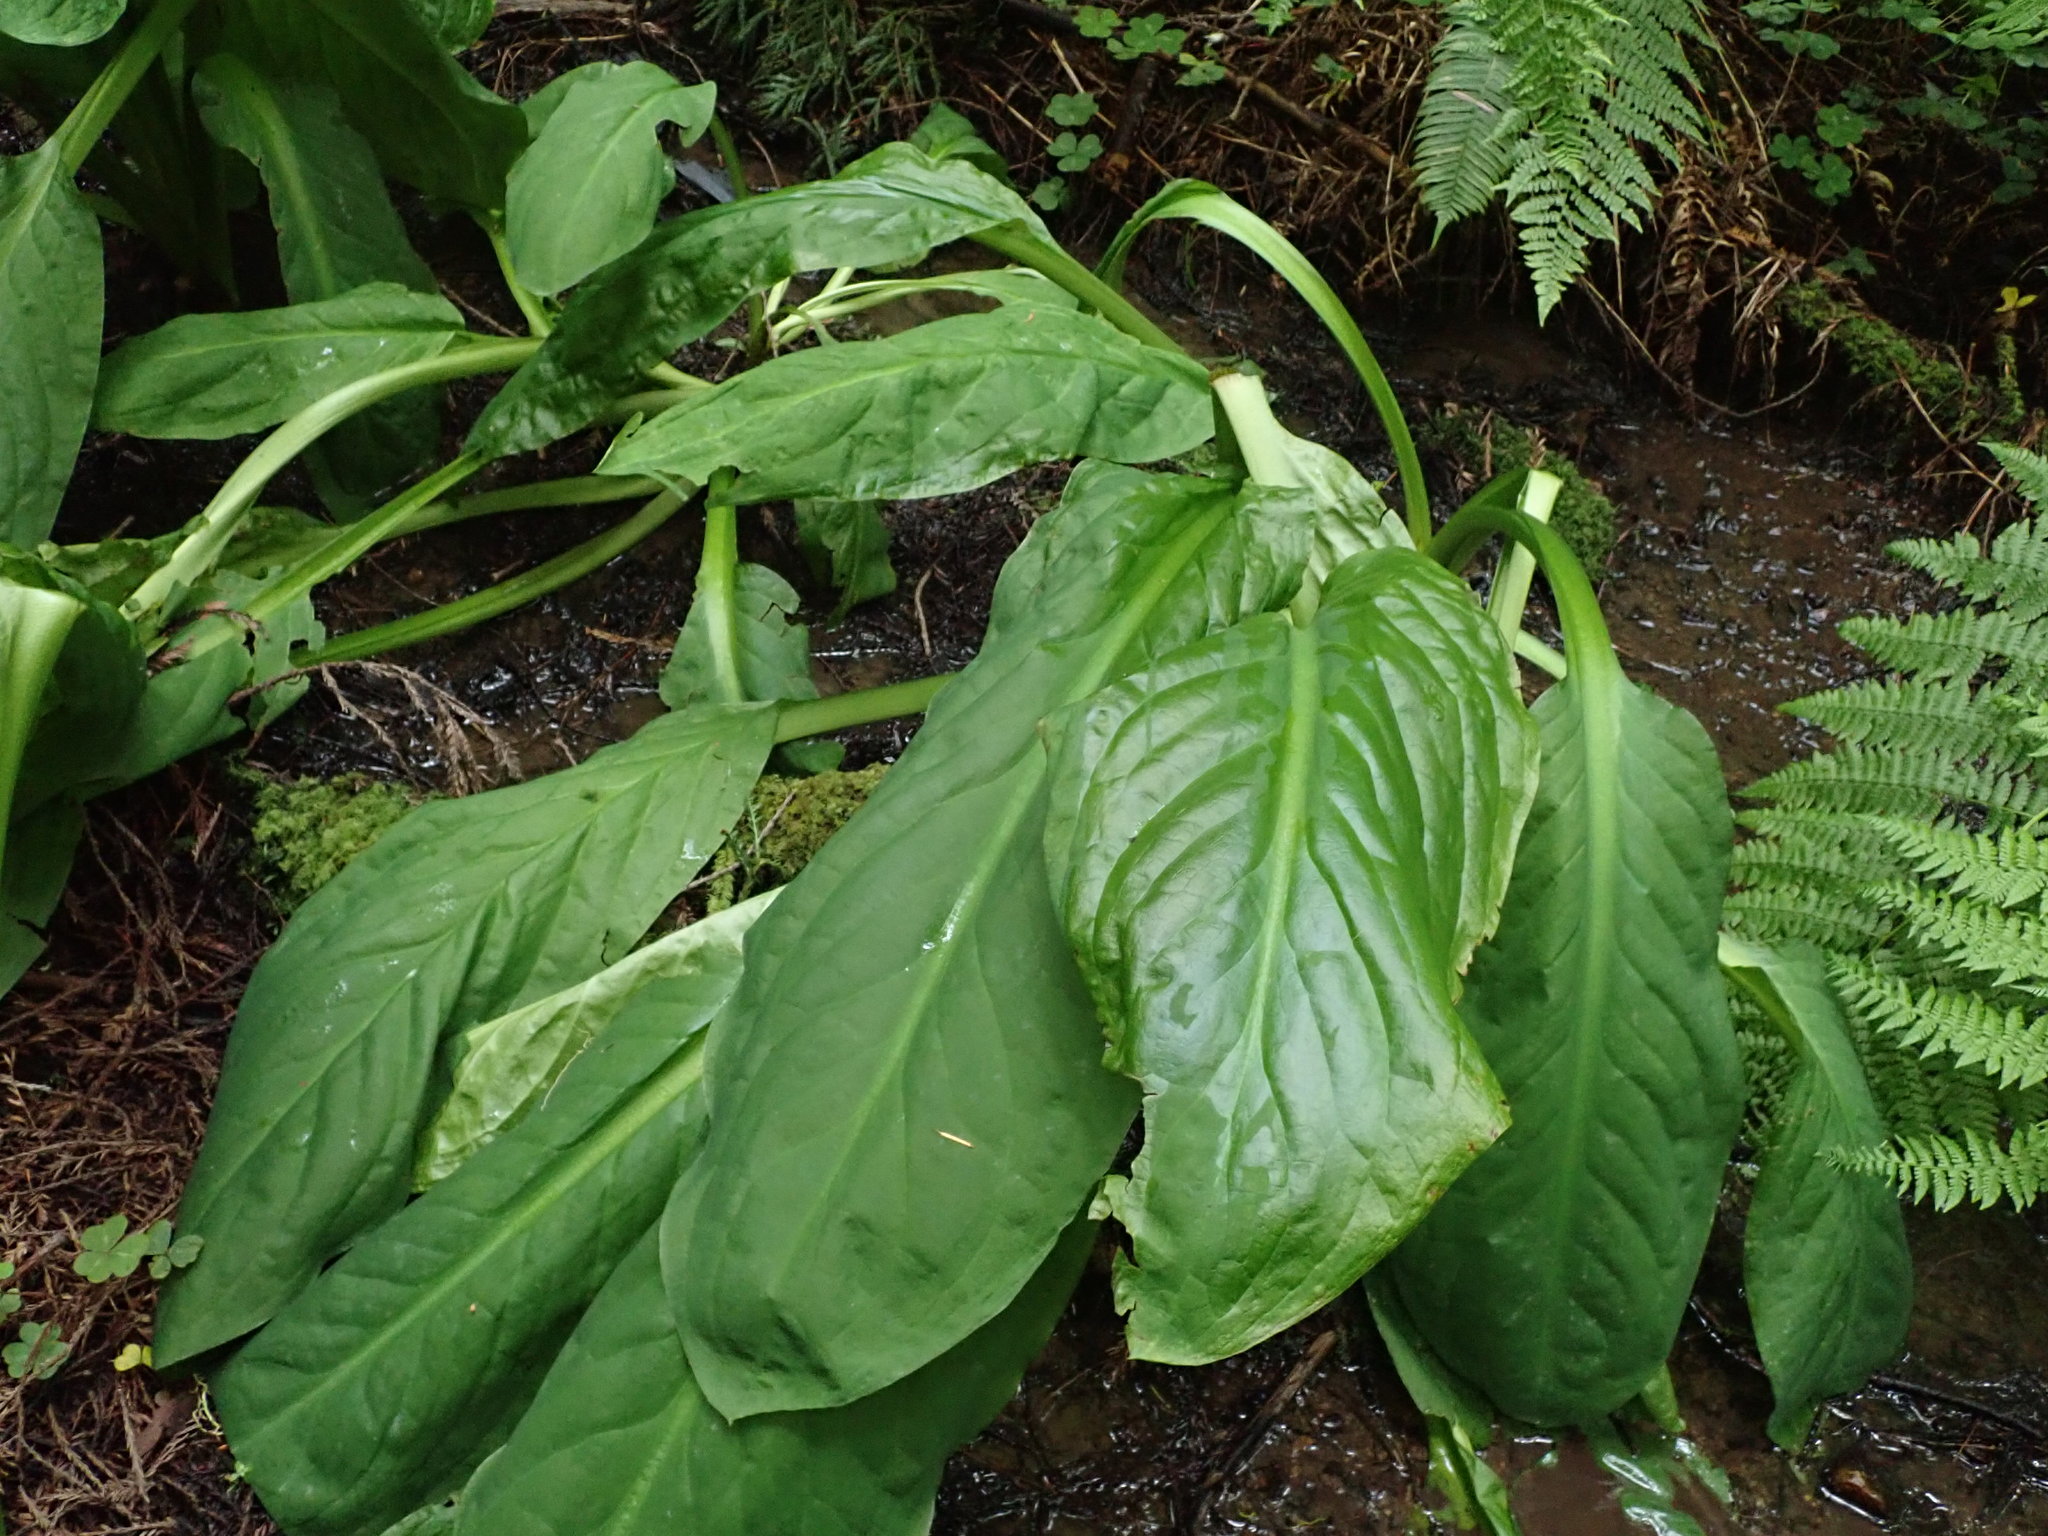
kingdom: Plantae
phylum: Tracheophyta
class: Liliopsida
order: Alismatales
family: Araceae
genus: Lysichiton
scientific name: Lysichiton americanus
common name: American skunk cabbage
